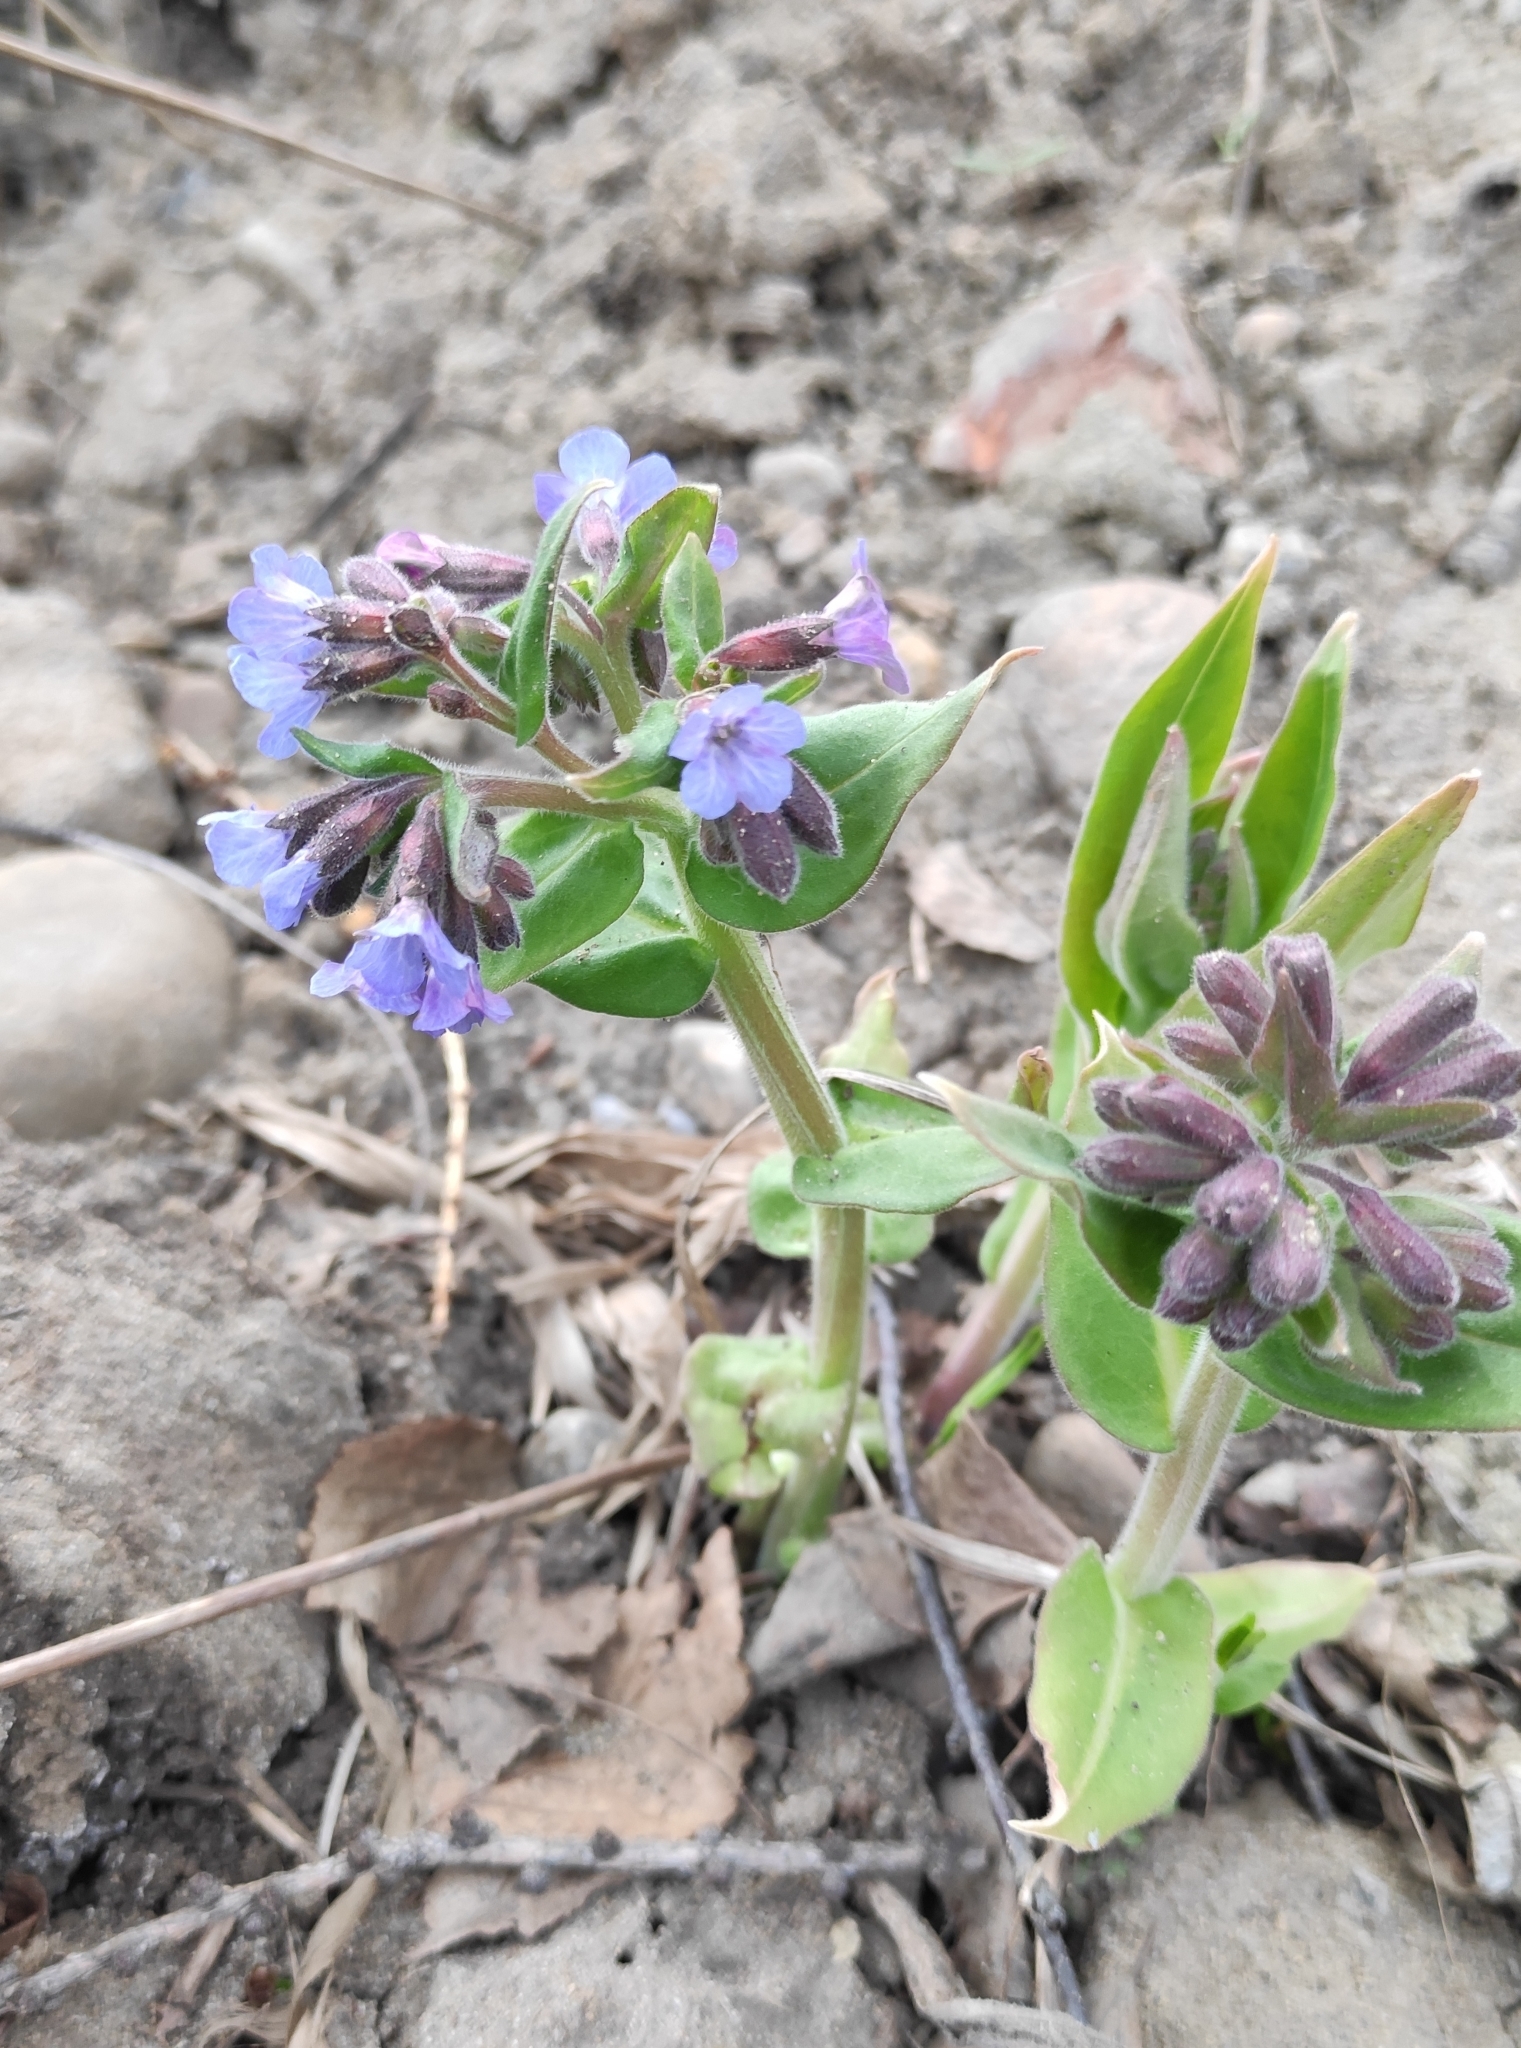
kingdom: Plantae
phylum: Tracheophyta
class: Magnoliopsida
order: Boraginales
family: Boraginaceae
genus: Pulmonaria
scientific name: Pulmonaria mollis
